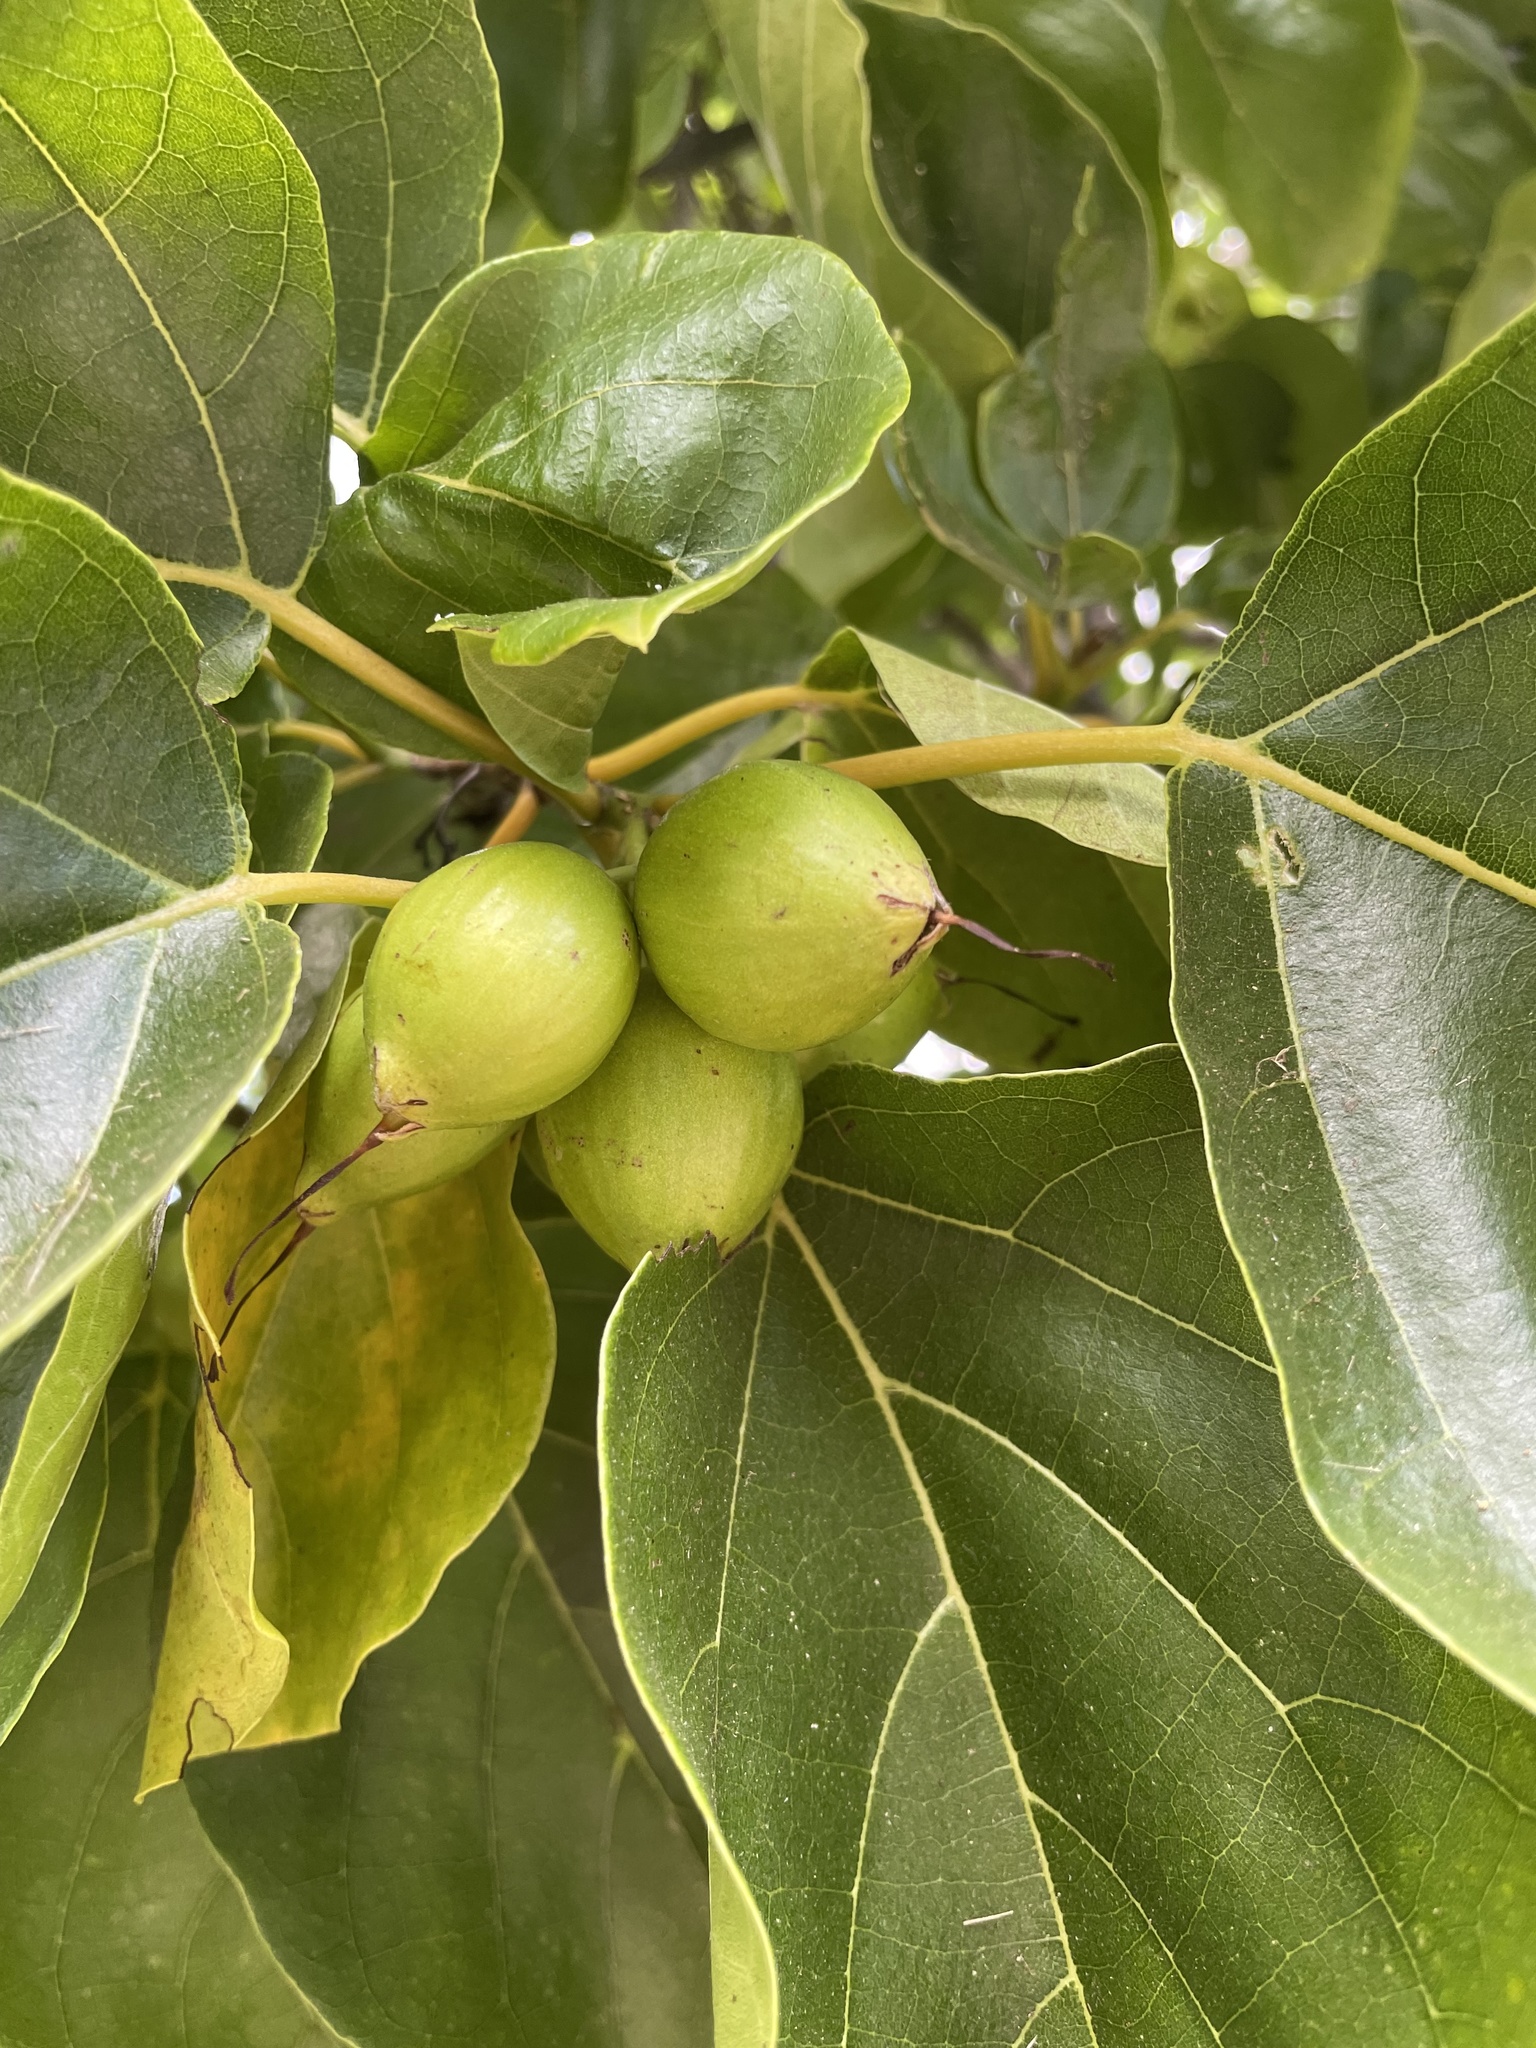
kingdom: Plantae
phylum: Tracheophyta
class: Magnoliopsida
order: Boraginales
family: Cordiaceae
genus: Cordia
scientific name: Cordia subcordata
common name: Mareer
